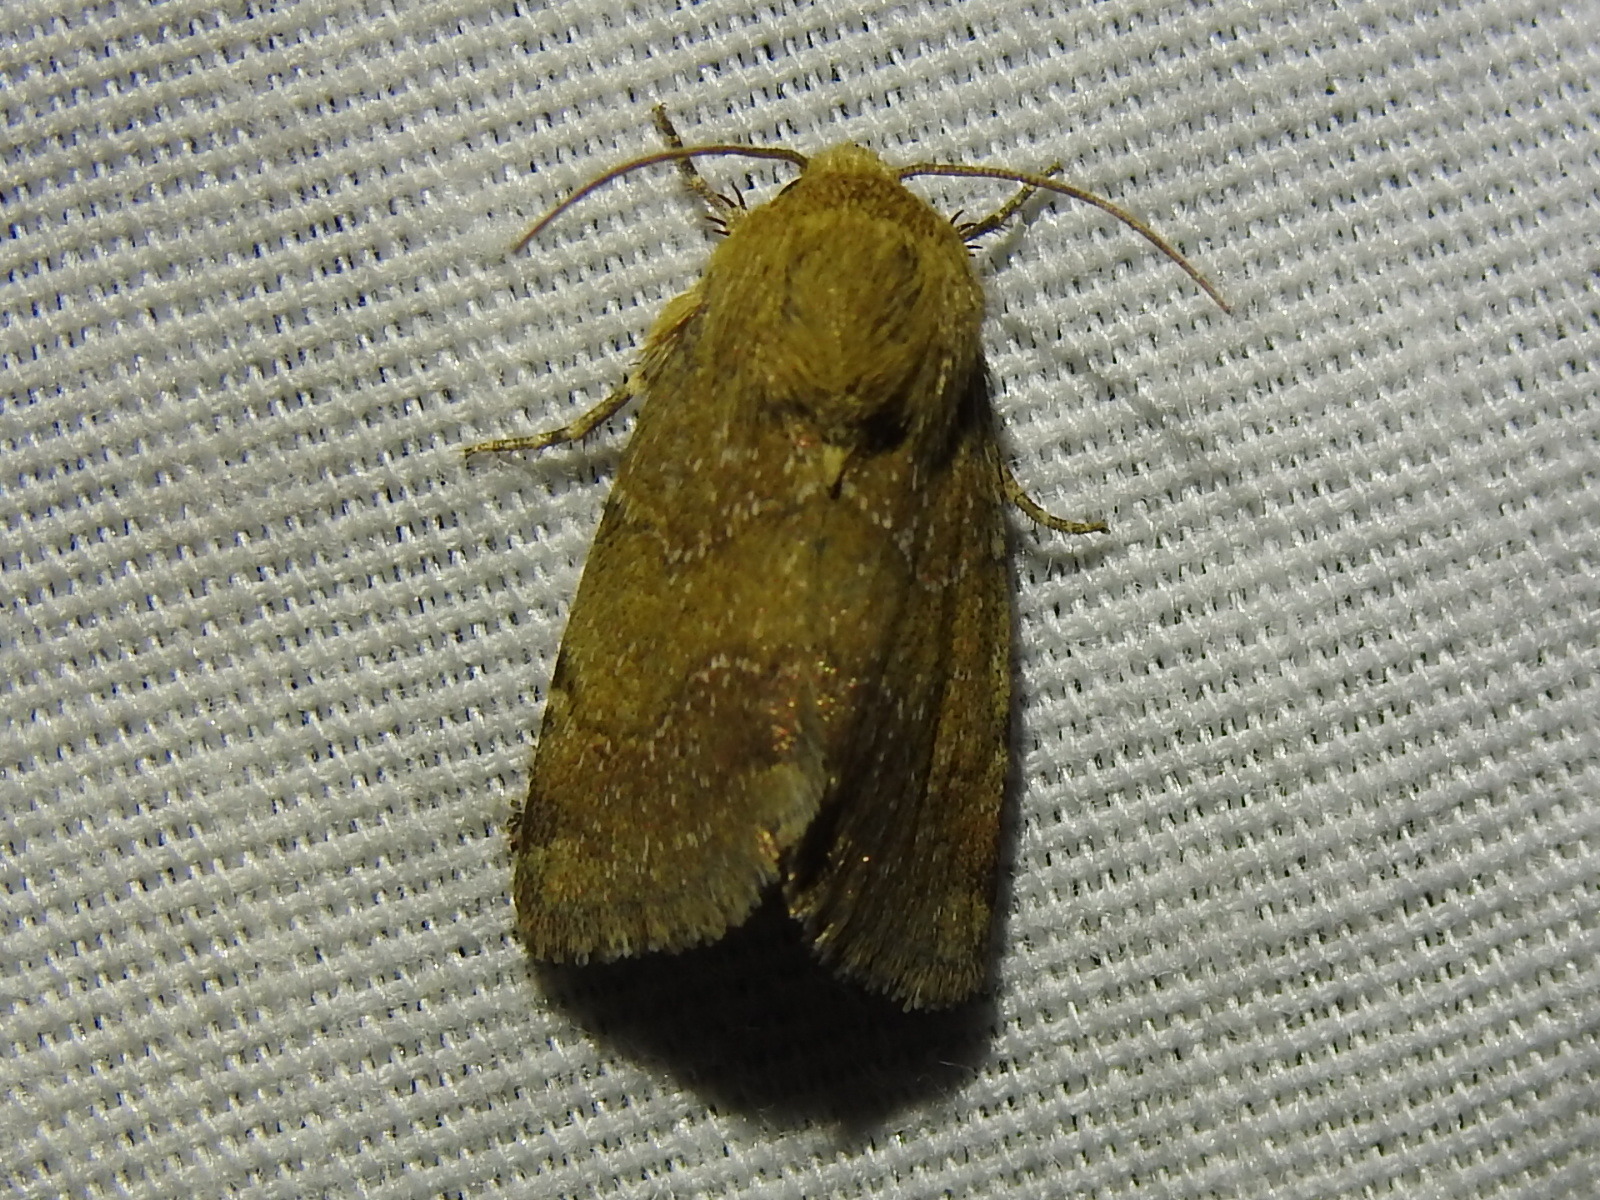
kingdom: Animalia
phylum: Arthropoda
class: Insecta
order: Lepidoptera
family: Noctuidae
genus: Schinia
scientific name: Schinia saturata
